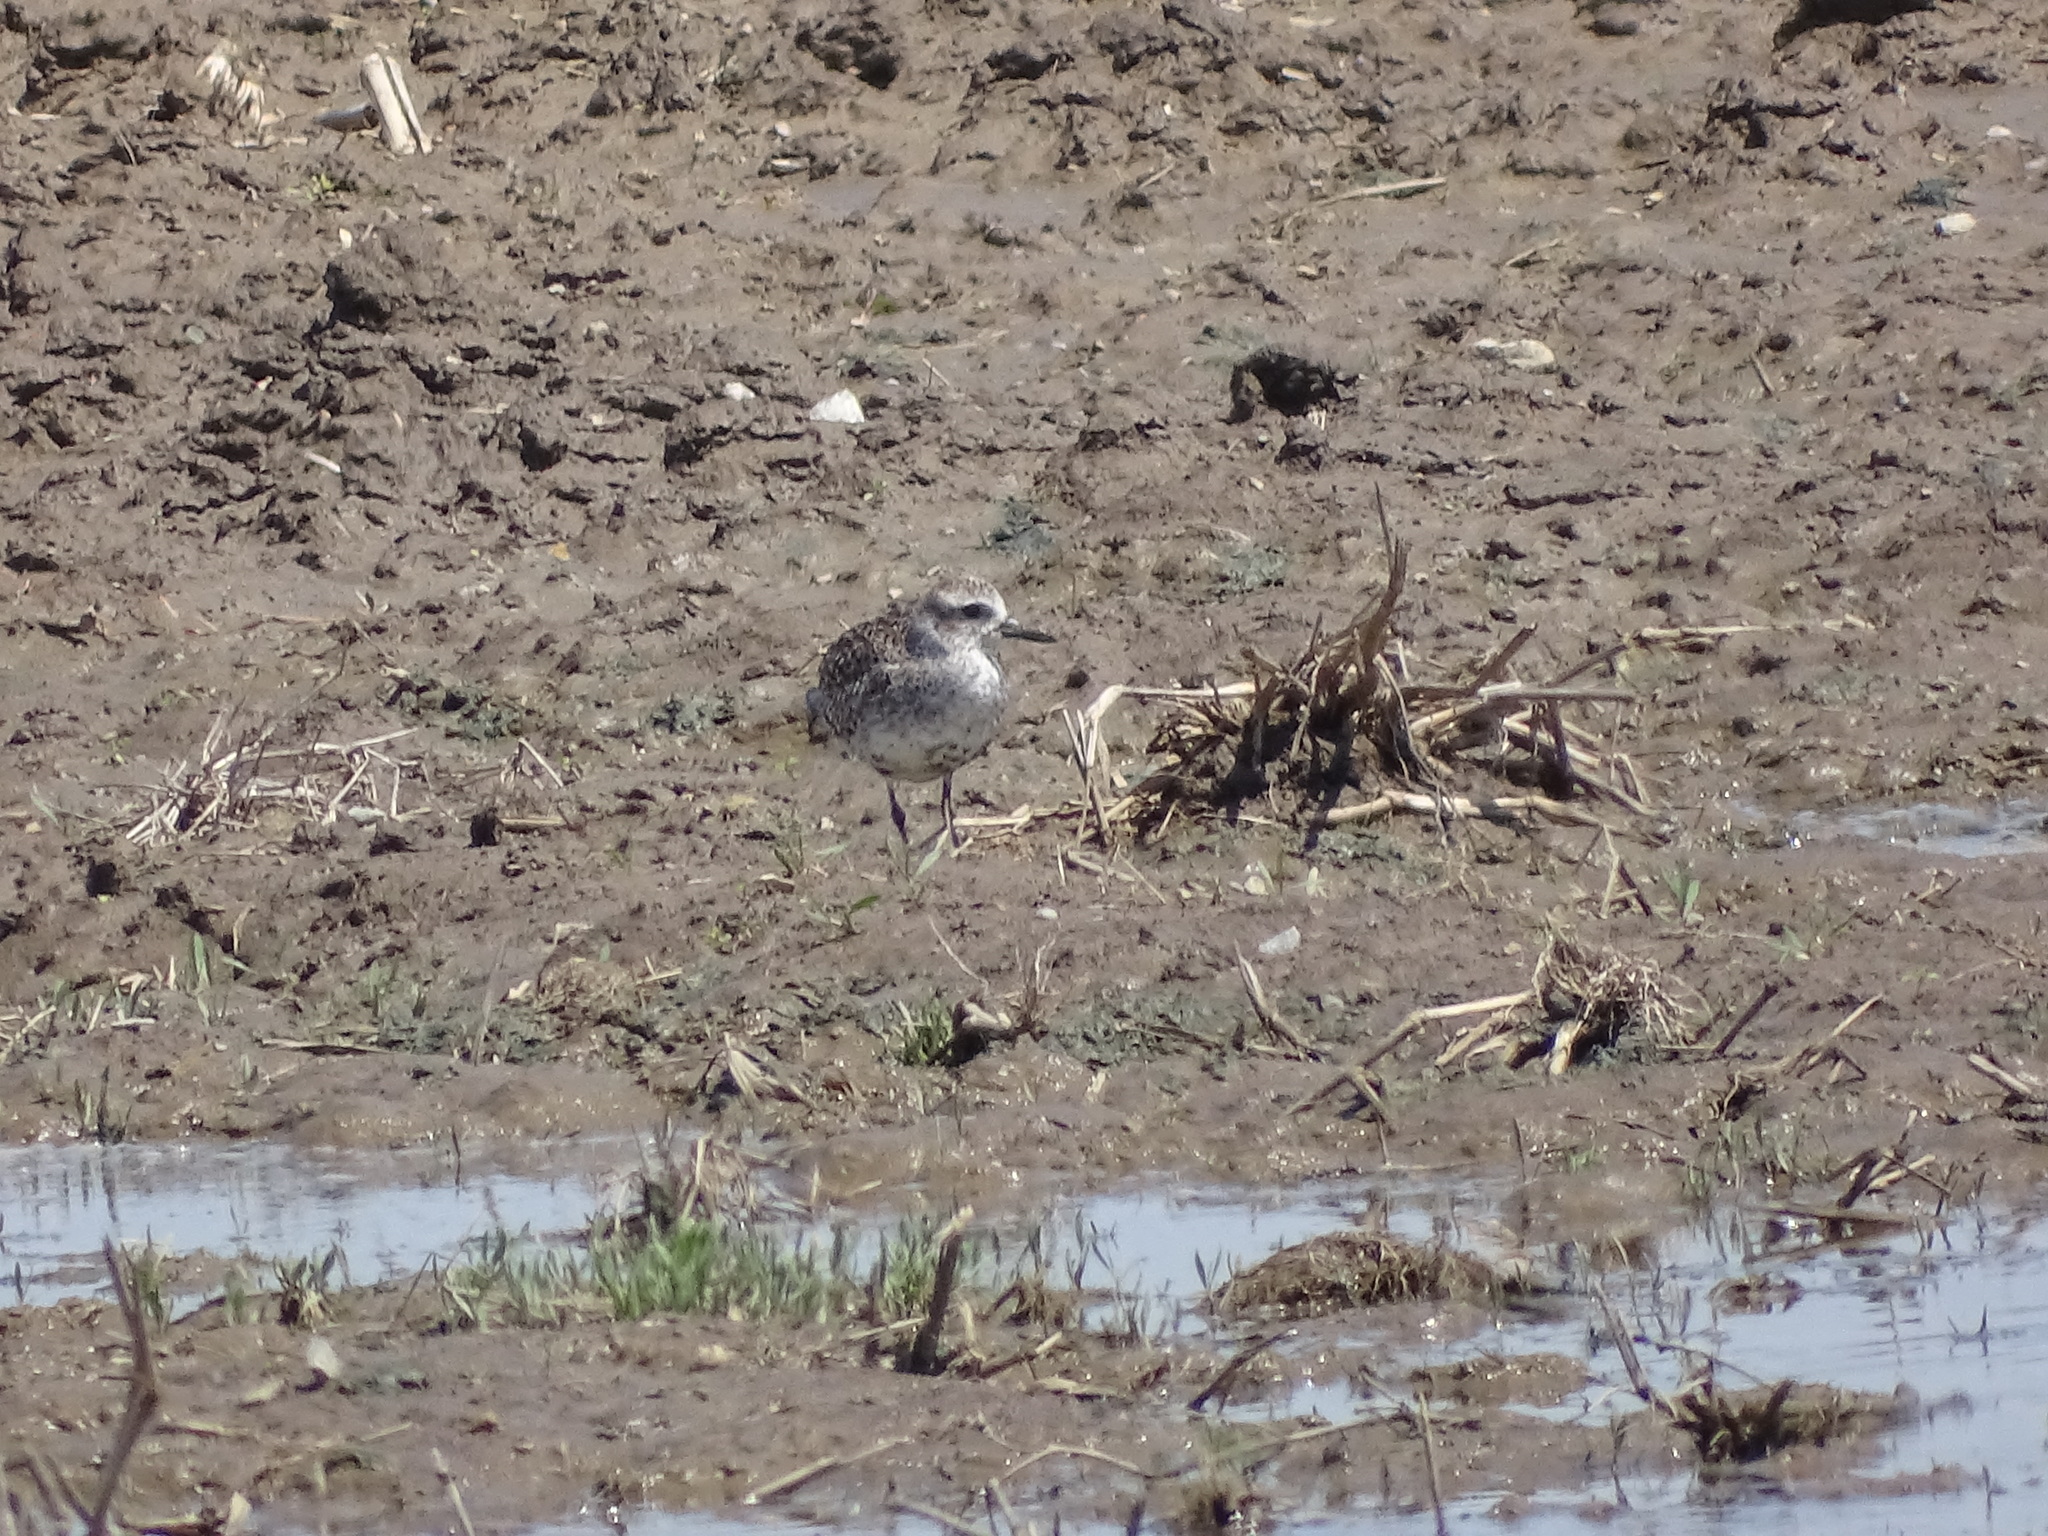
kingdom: Animalia
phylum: Chordata
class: Aves
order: Charadriiformes
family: Charadriidae
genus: Pluvialis
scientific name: Pluvialis squatarola
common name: Grey plover
